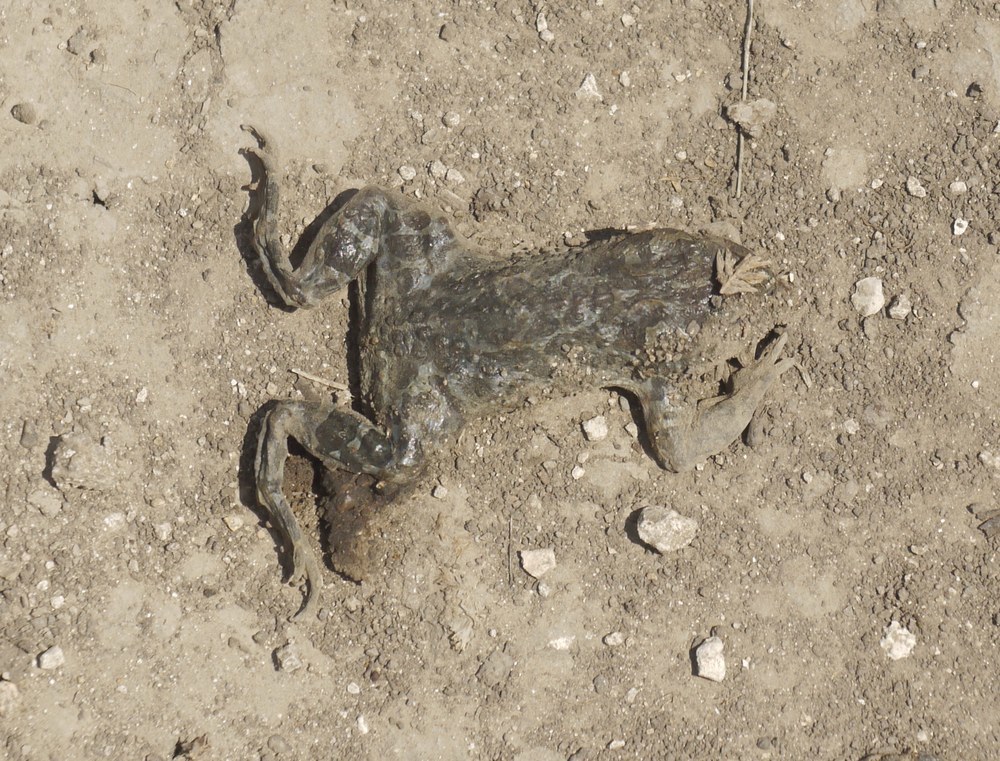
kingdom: Animalia
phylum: Chordata
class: Amphibia
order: Anura
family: Bufonidae
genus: Bufotes
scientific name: Bufotes viridis
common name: European green toad
